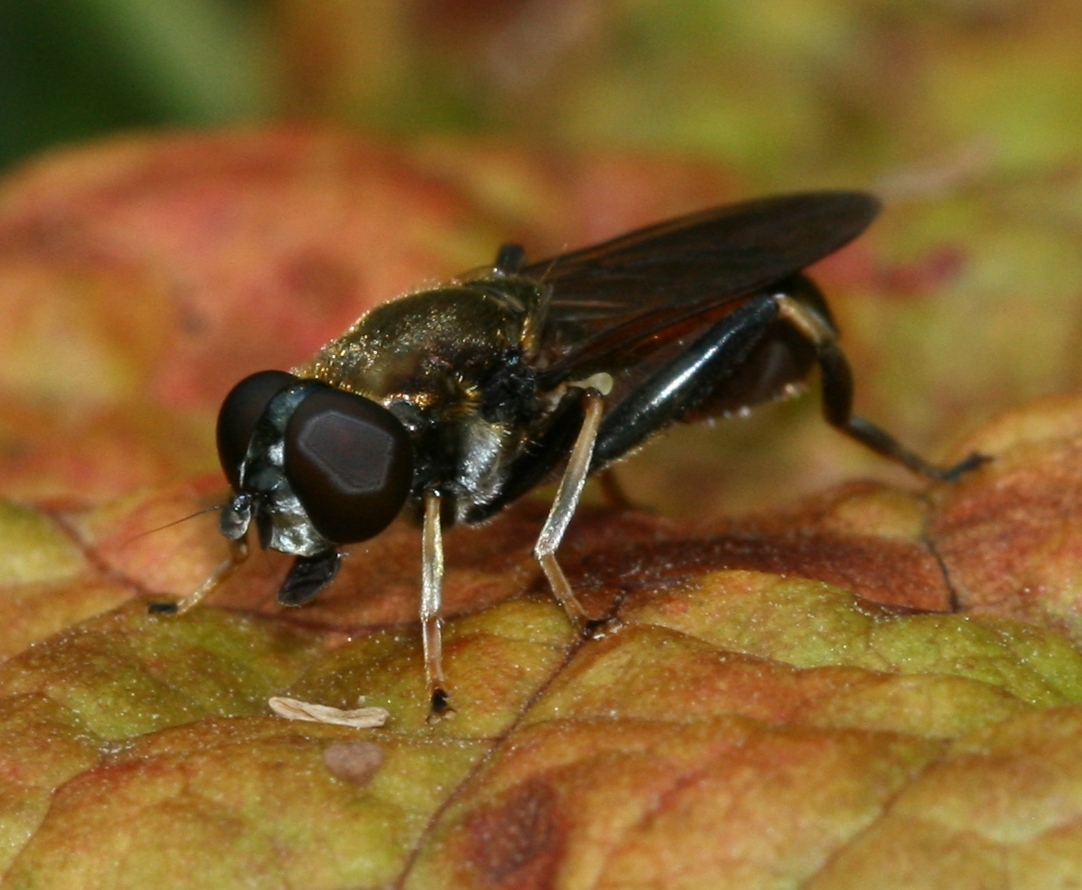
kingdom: Animalia
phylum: Arthropoda
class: Insecta
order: Diptera
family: Syrphidae
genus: Xylota
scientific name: Xylota segnis
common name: Brown-toed forest fly
